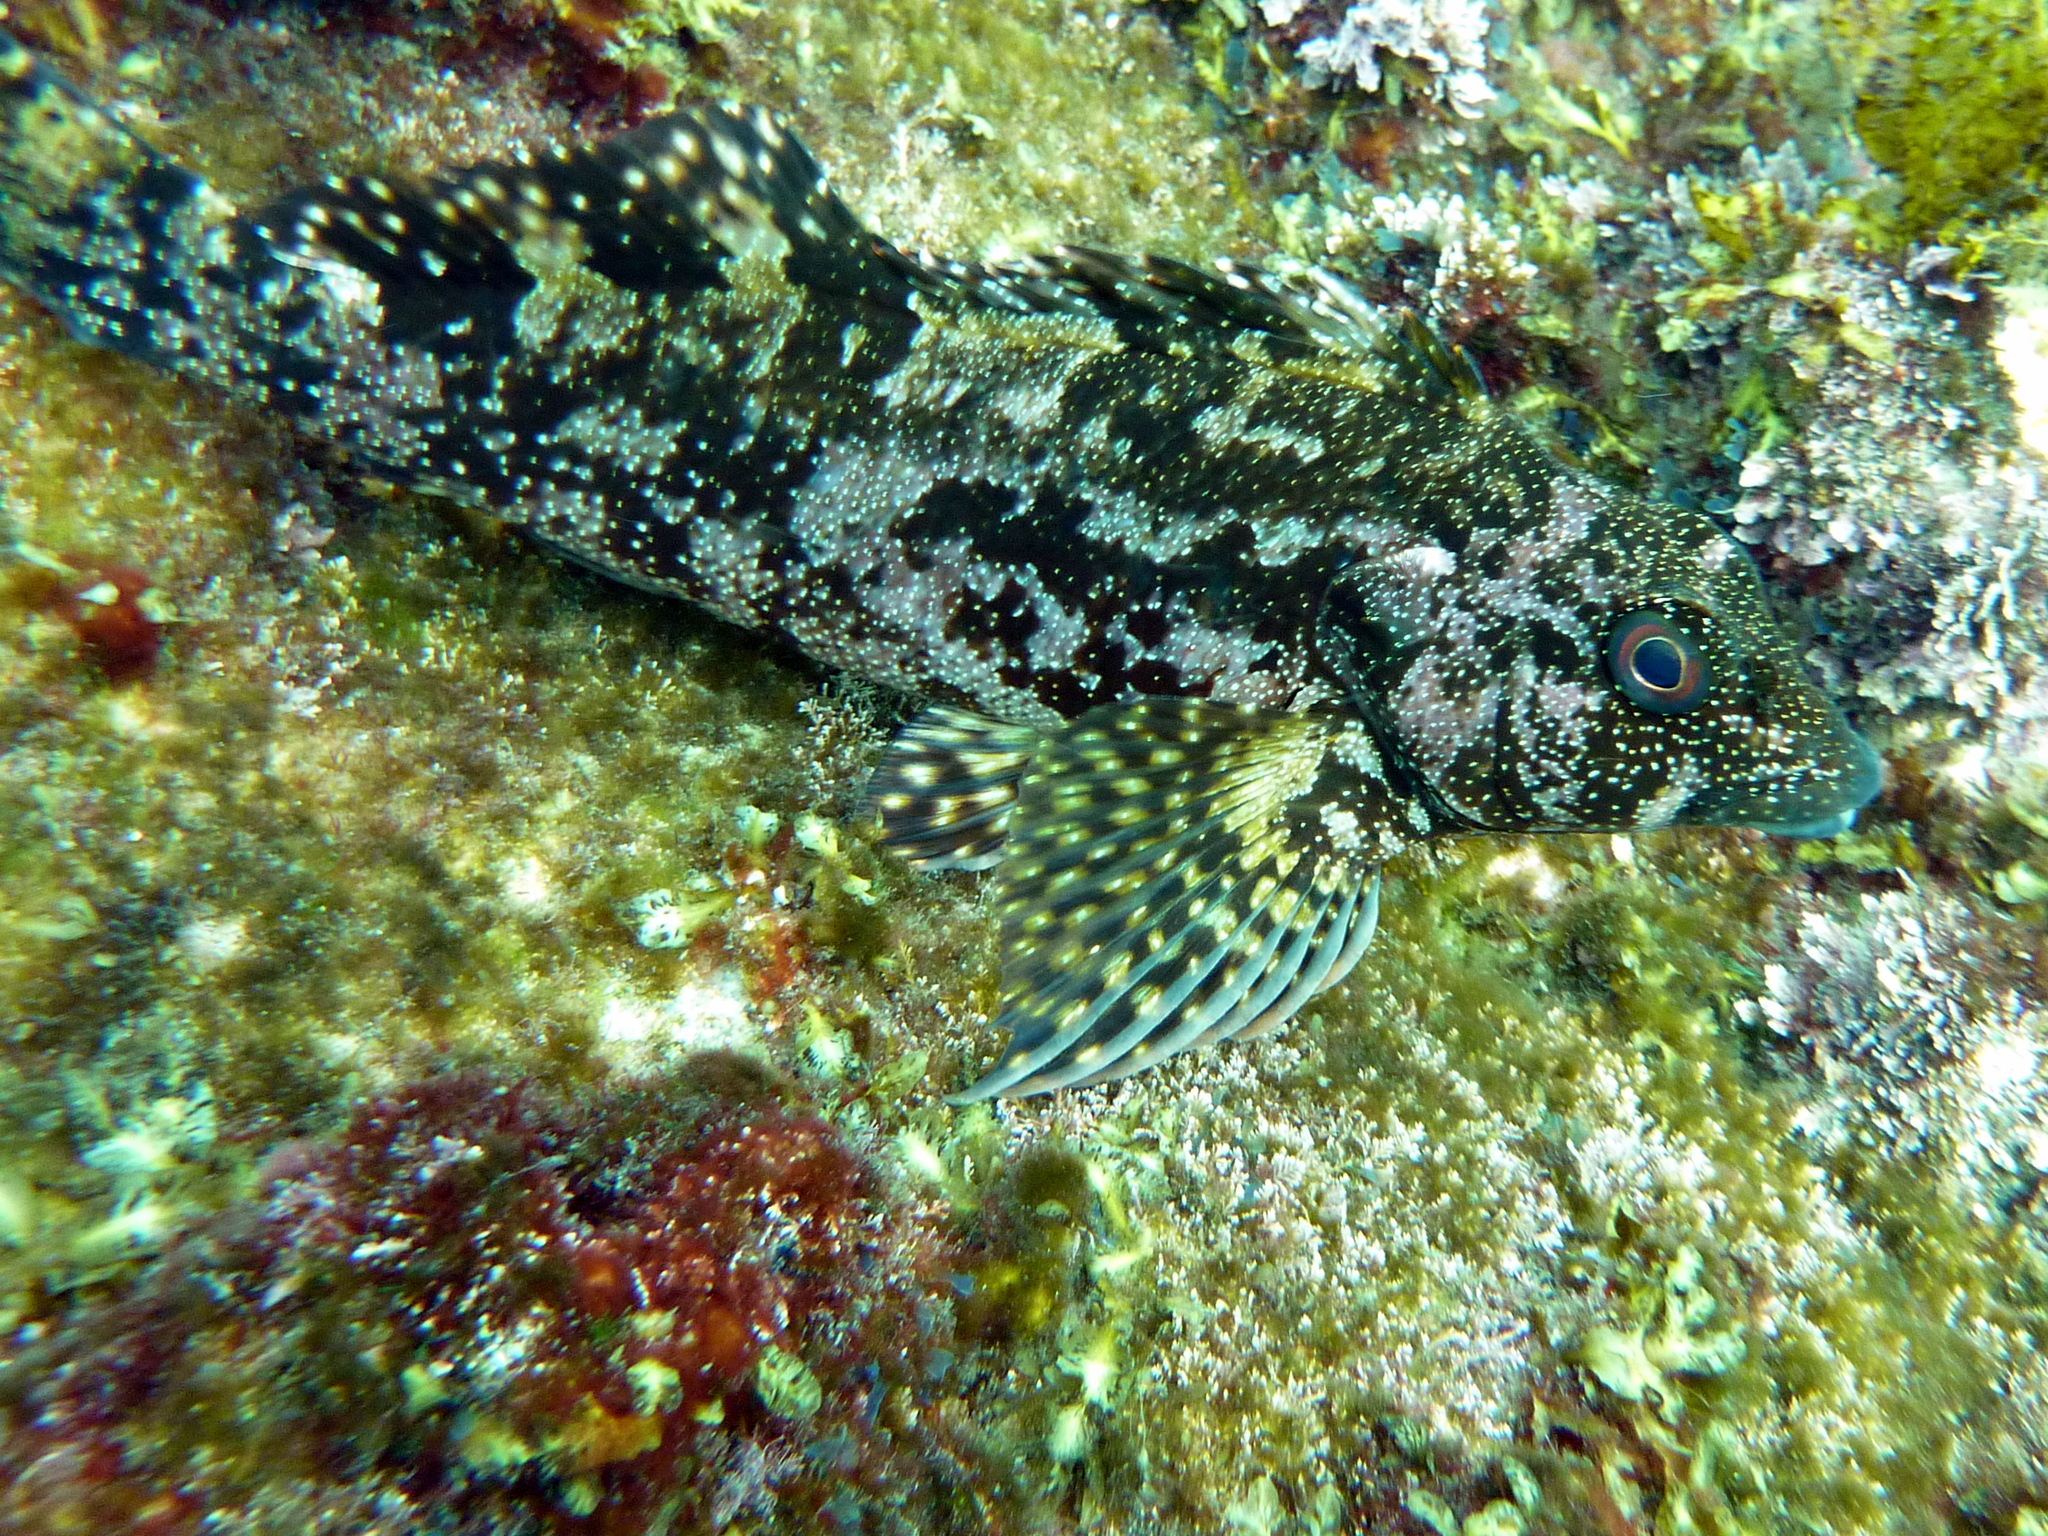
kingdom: Animalia
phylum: Chordata
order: Perciformes
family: Chironemidae
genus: Chironemus
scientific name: Chironemus marmoratus
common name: Kelpfish
